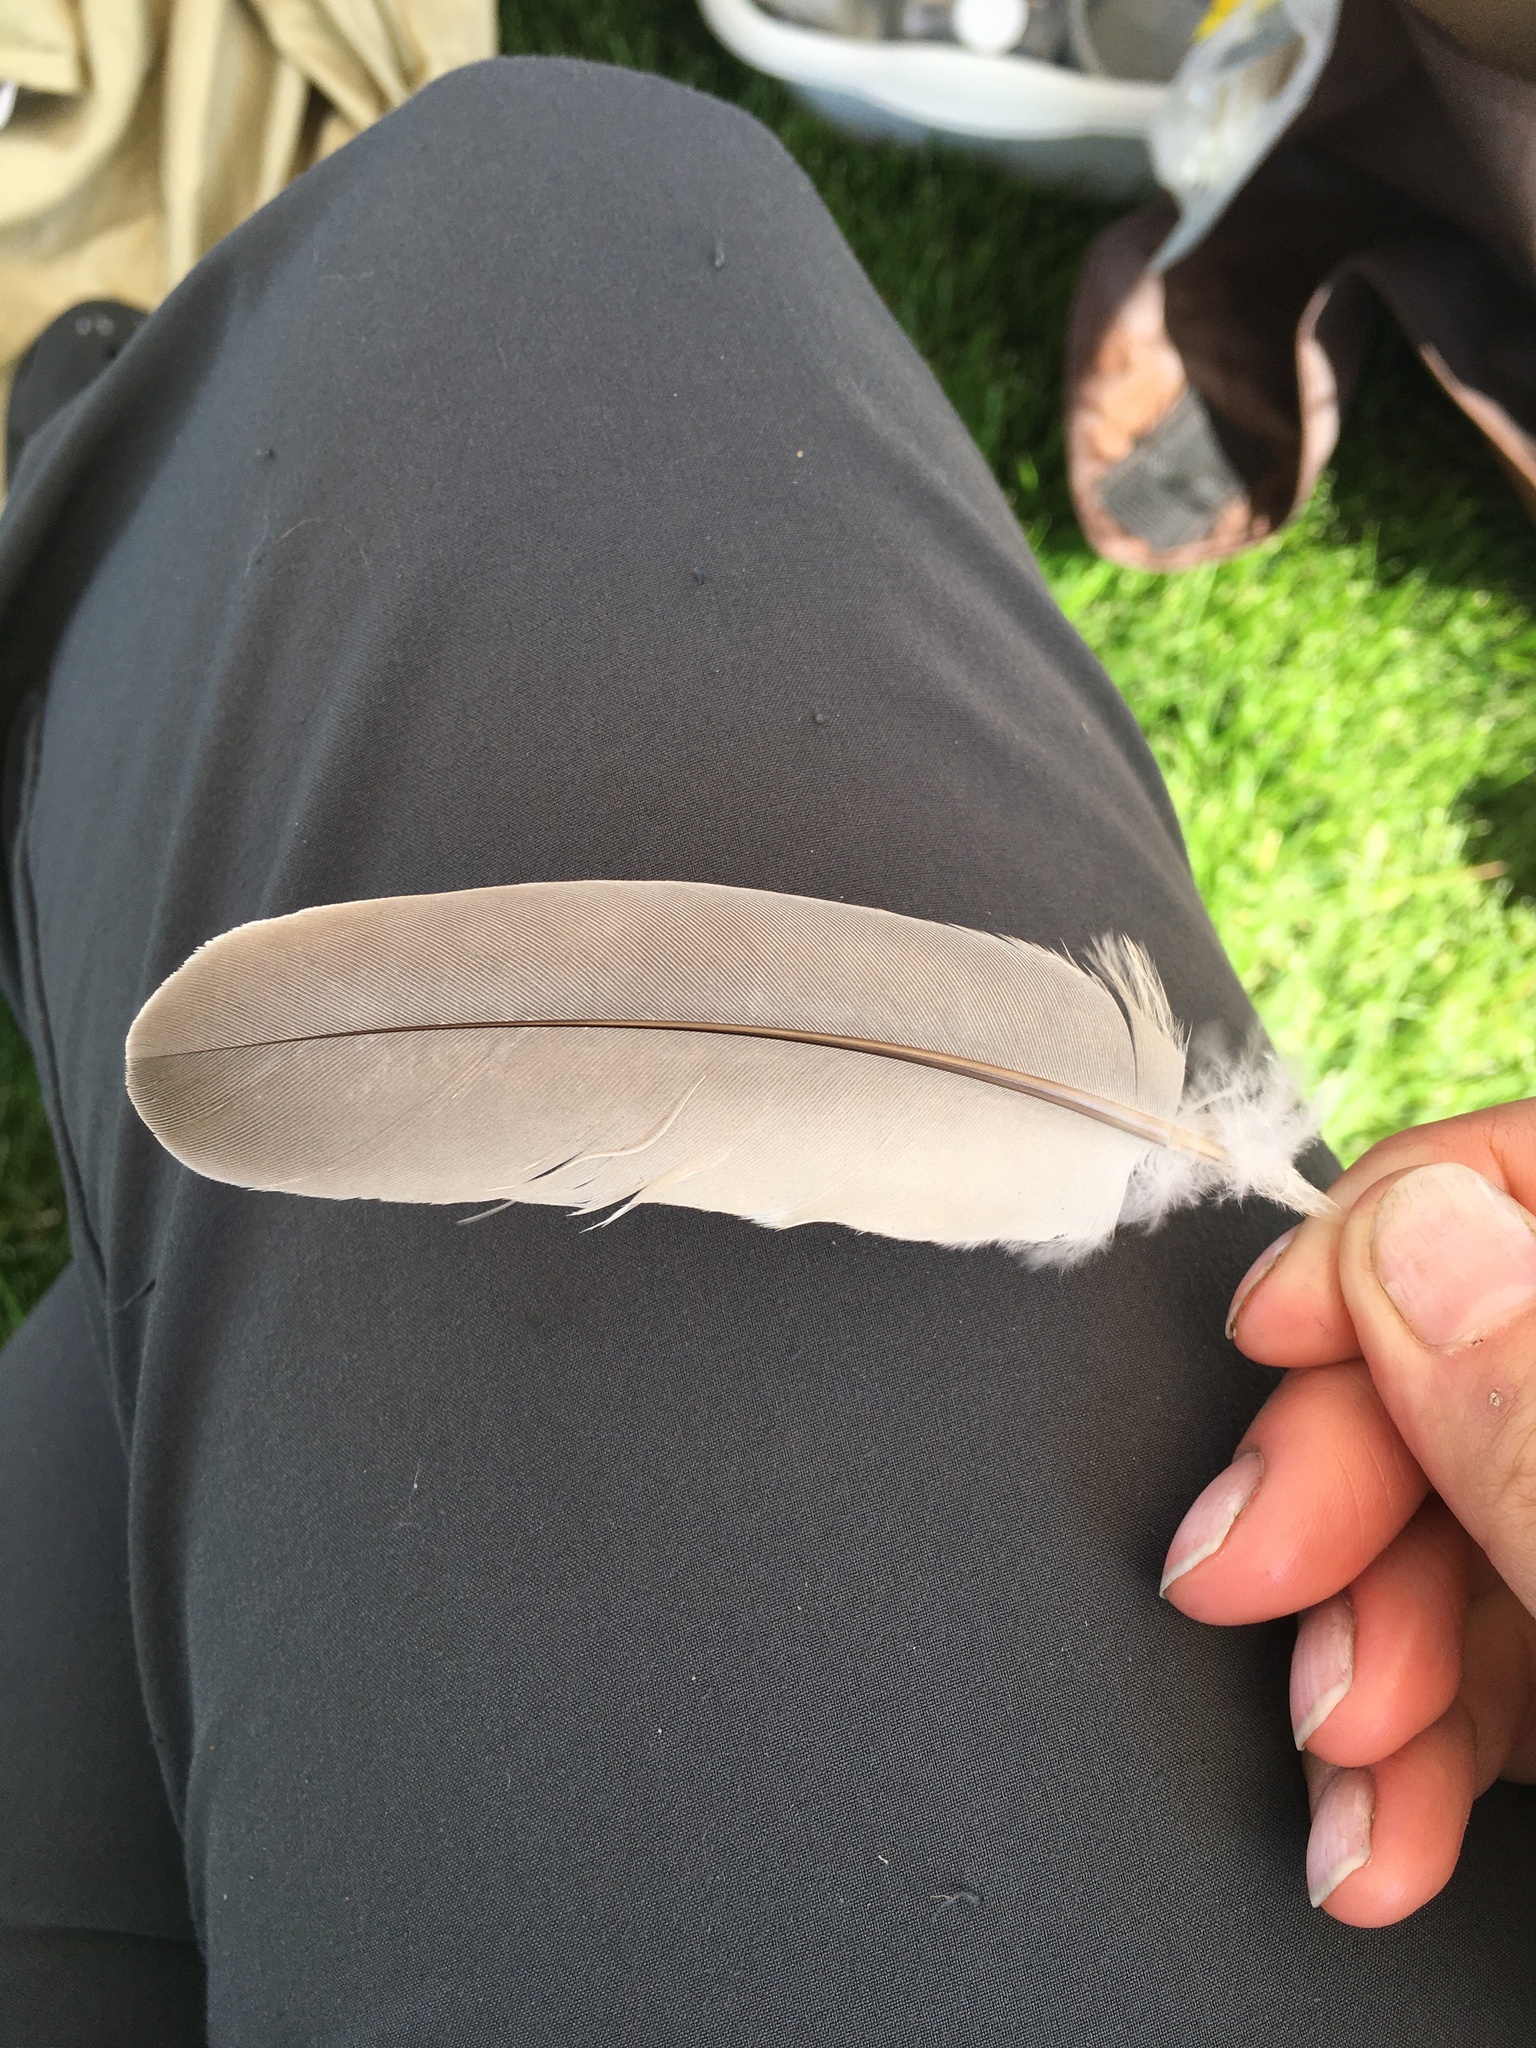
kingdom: Animalia
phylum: Chordata
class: Aves
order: Columbiformes
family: Columbidae
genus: Streptopelia
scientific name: Streptopelia decaocto
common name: Eurasian collared dove
